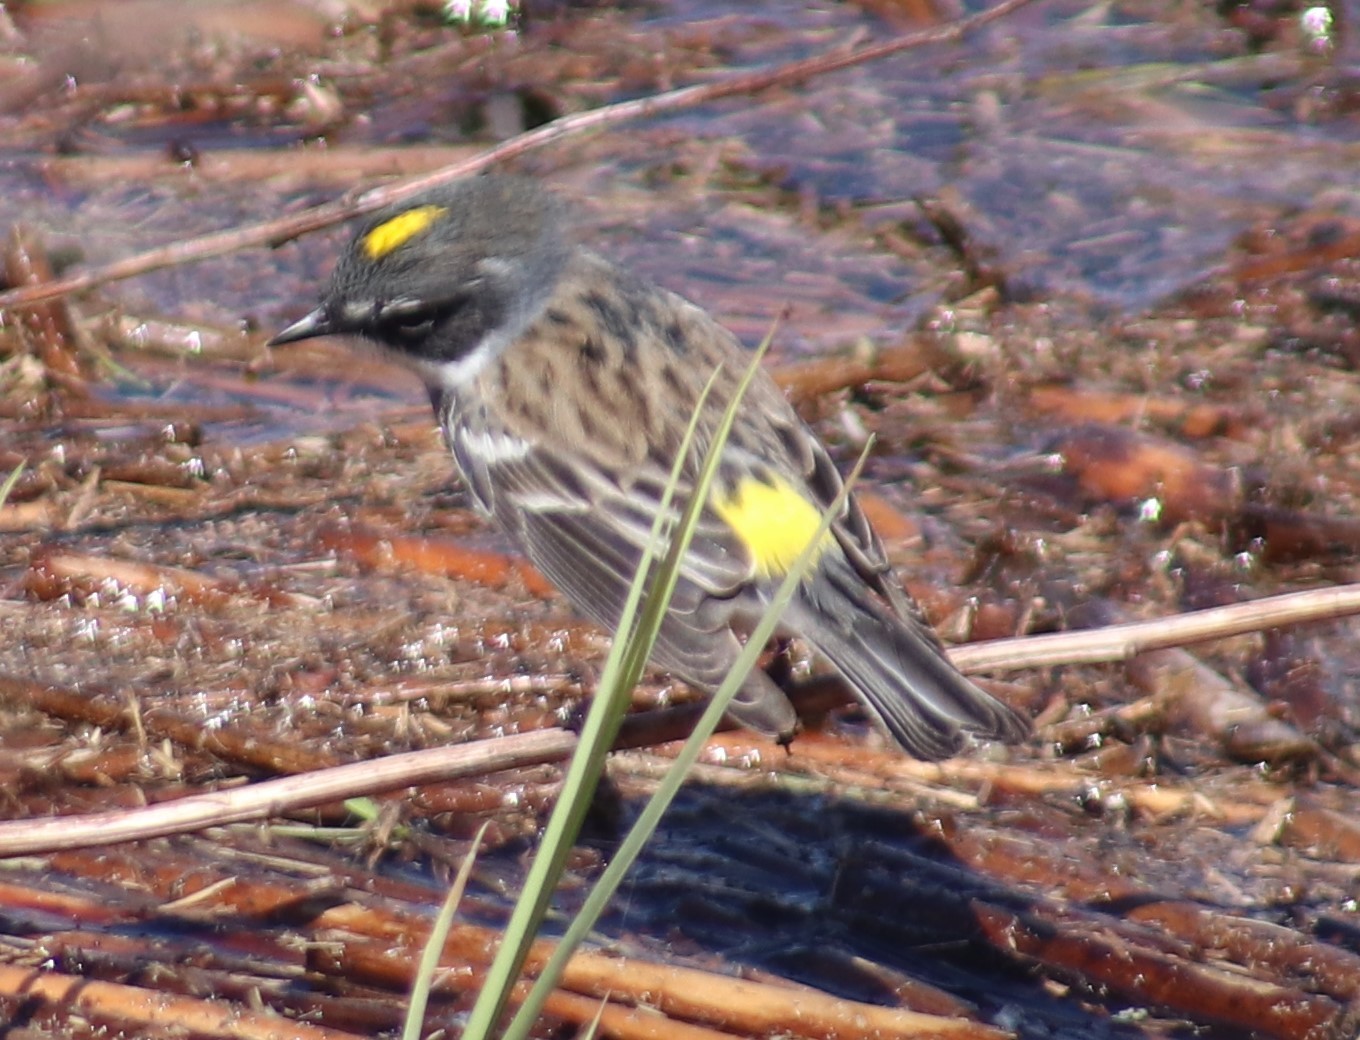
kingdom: Animalia
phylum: Chordata
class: Aves
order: Passeriformes
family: Parulidae
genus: Setophaga
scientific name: Setophaga coronata
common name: Myrtle warbler
